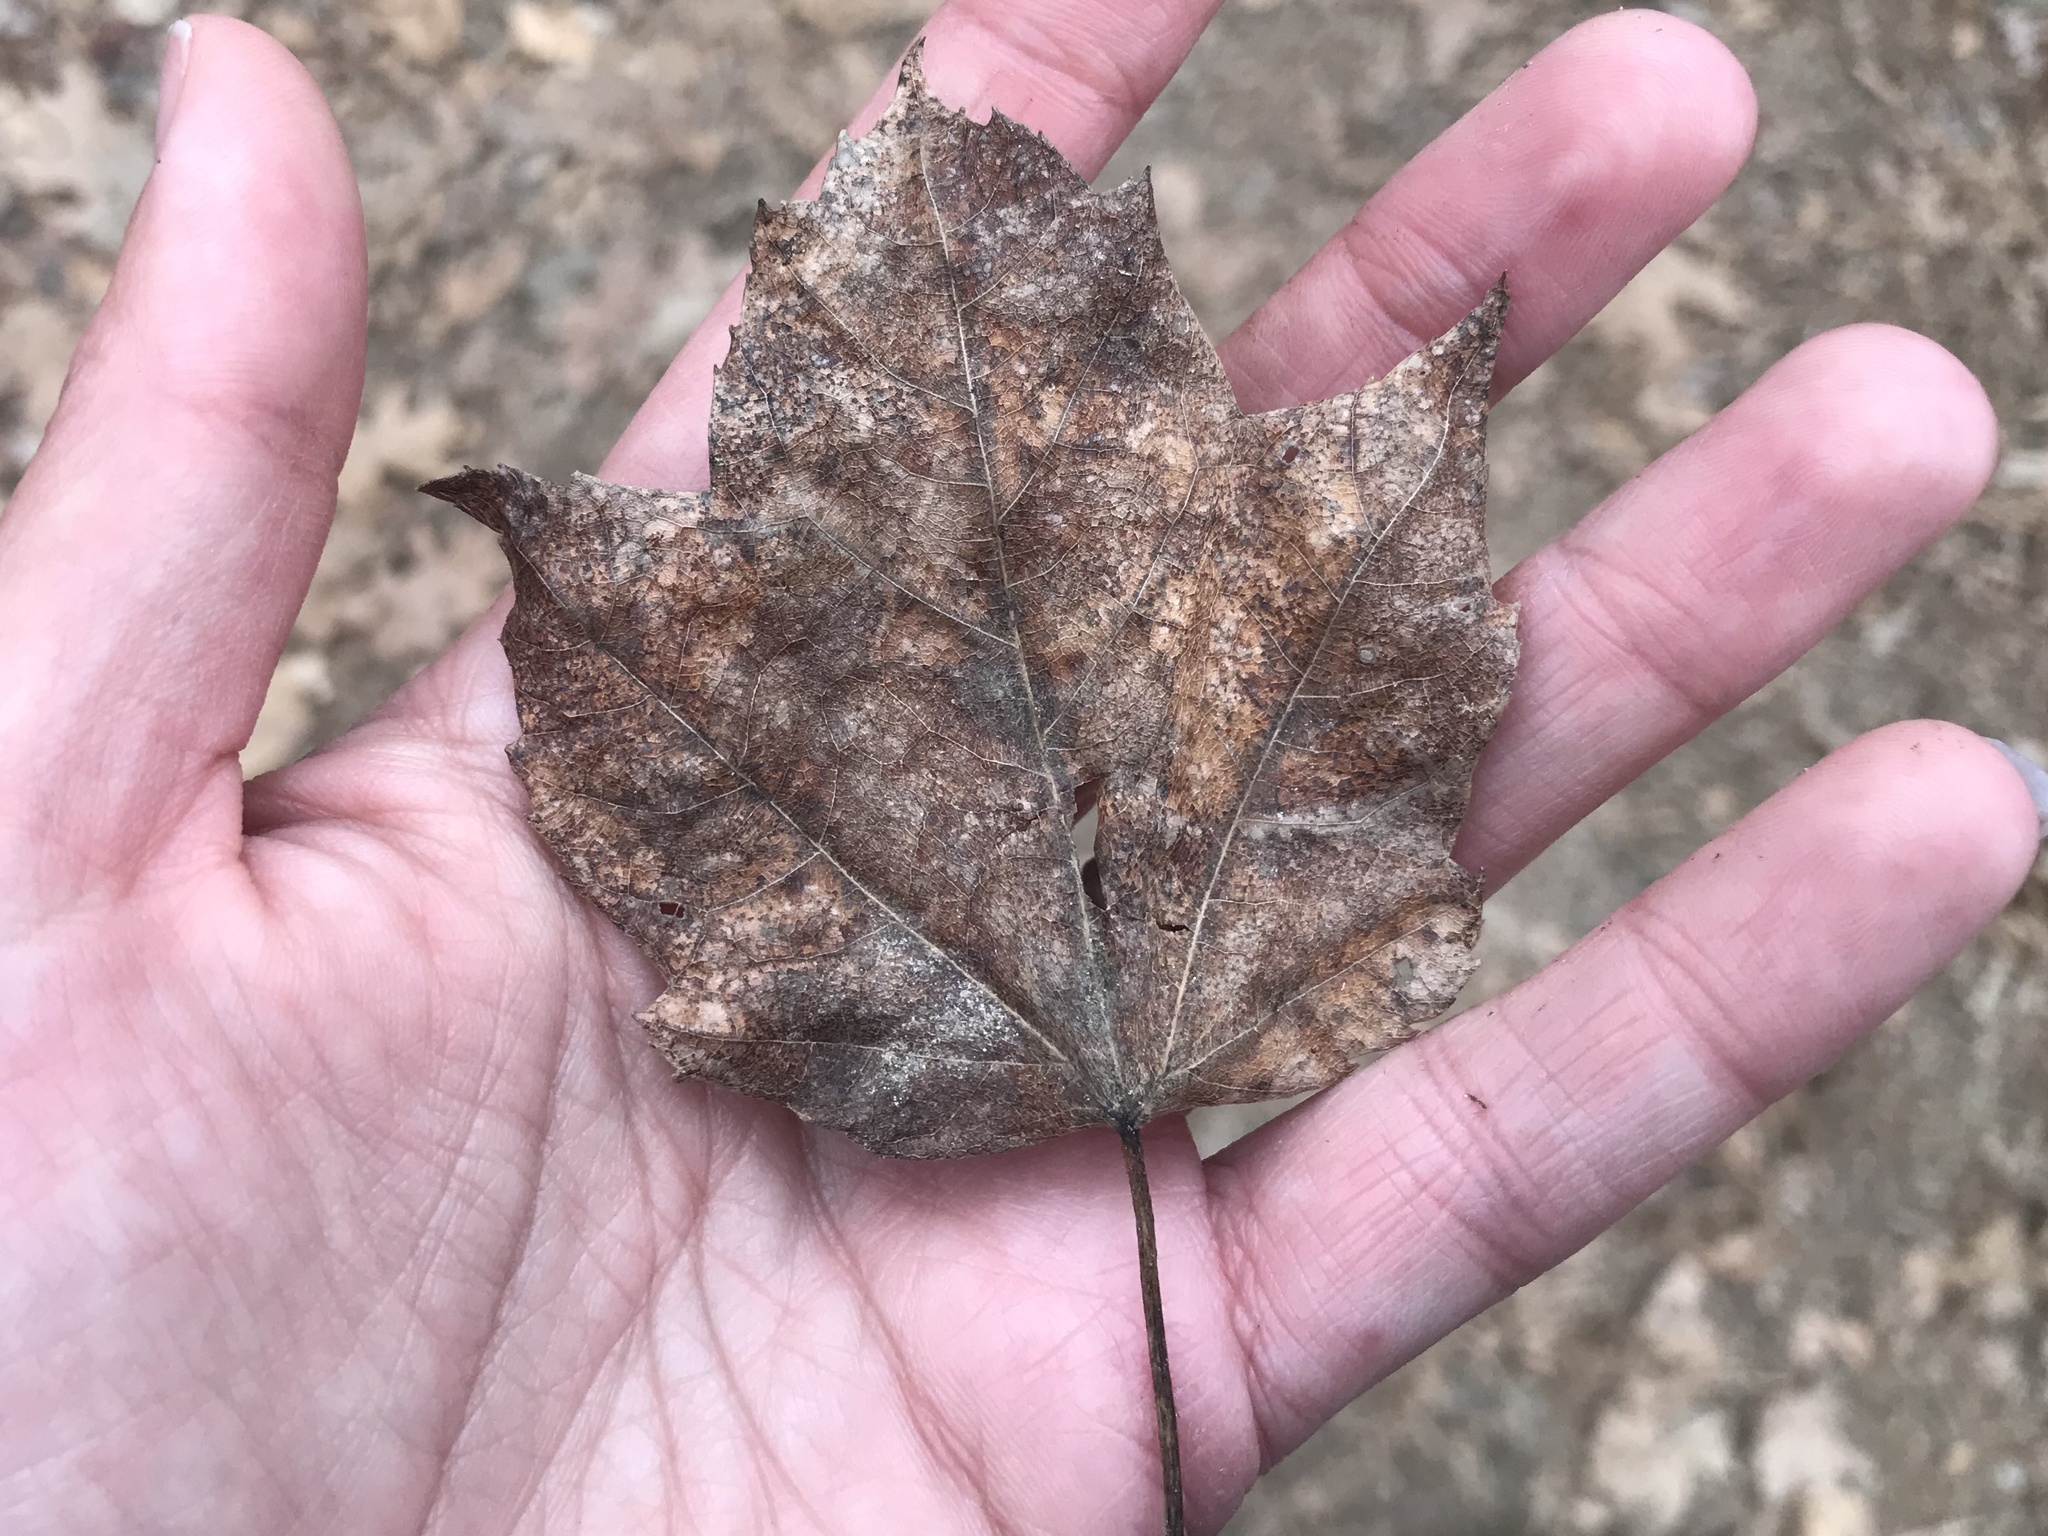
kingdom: Plantae
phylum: Tracheophyta
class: Magnoliopsida
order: Sapindales
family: Sapindaceae
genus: Acer
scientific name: Acer rubrum
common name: Red maple
